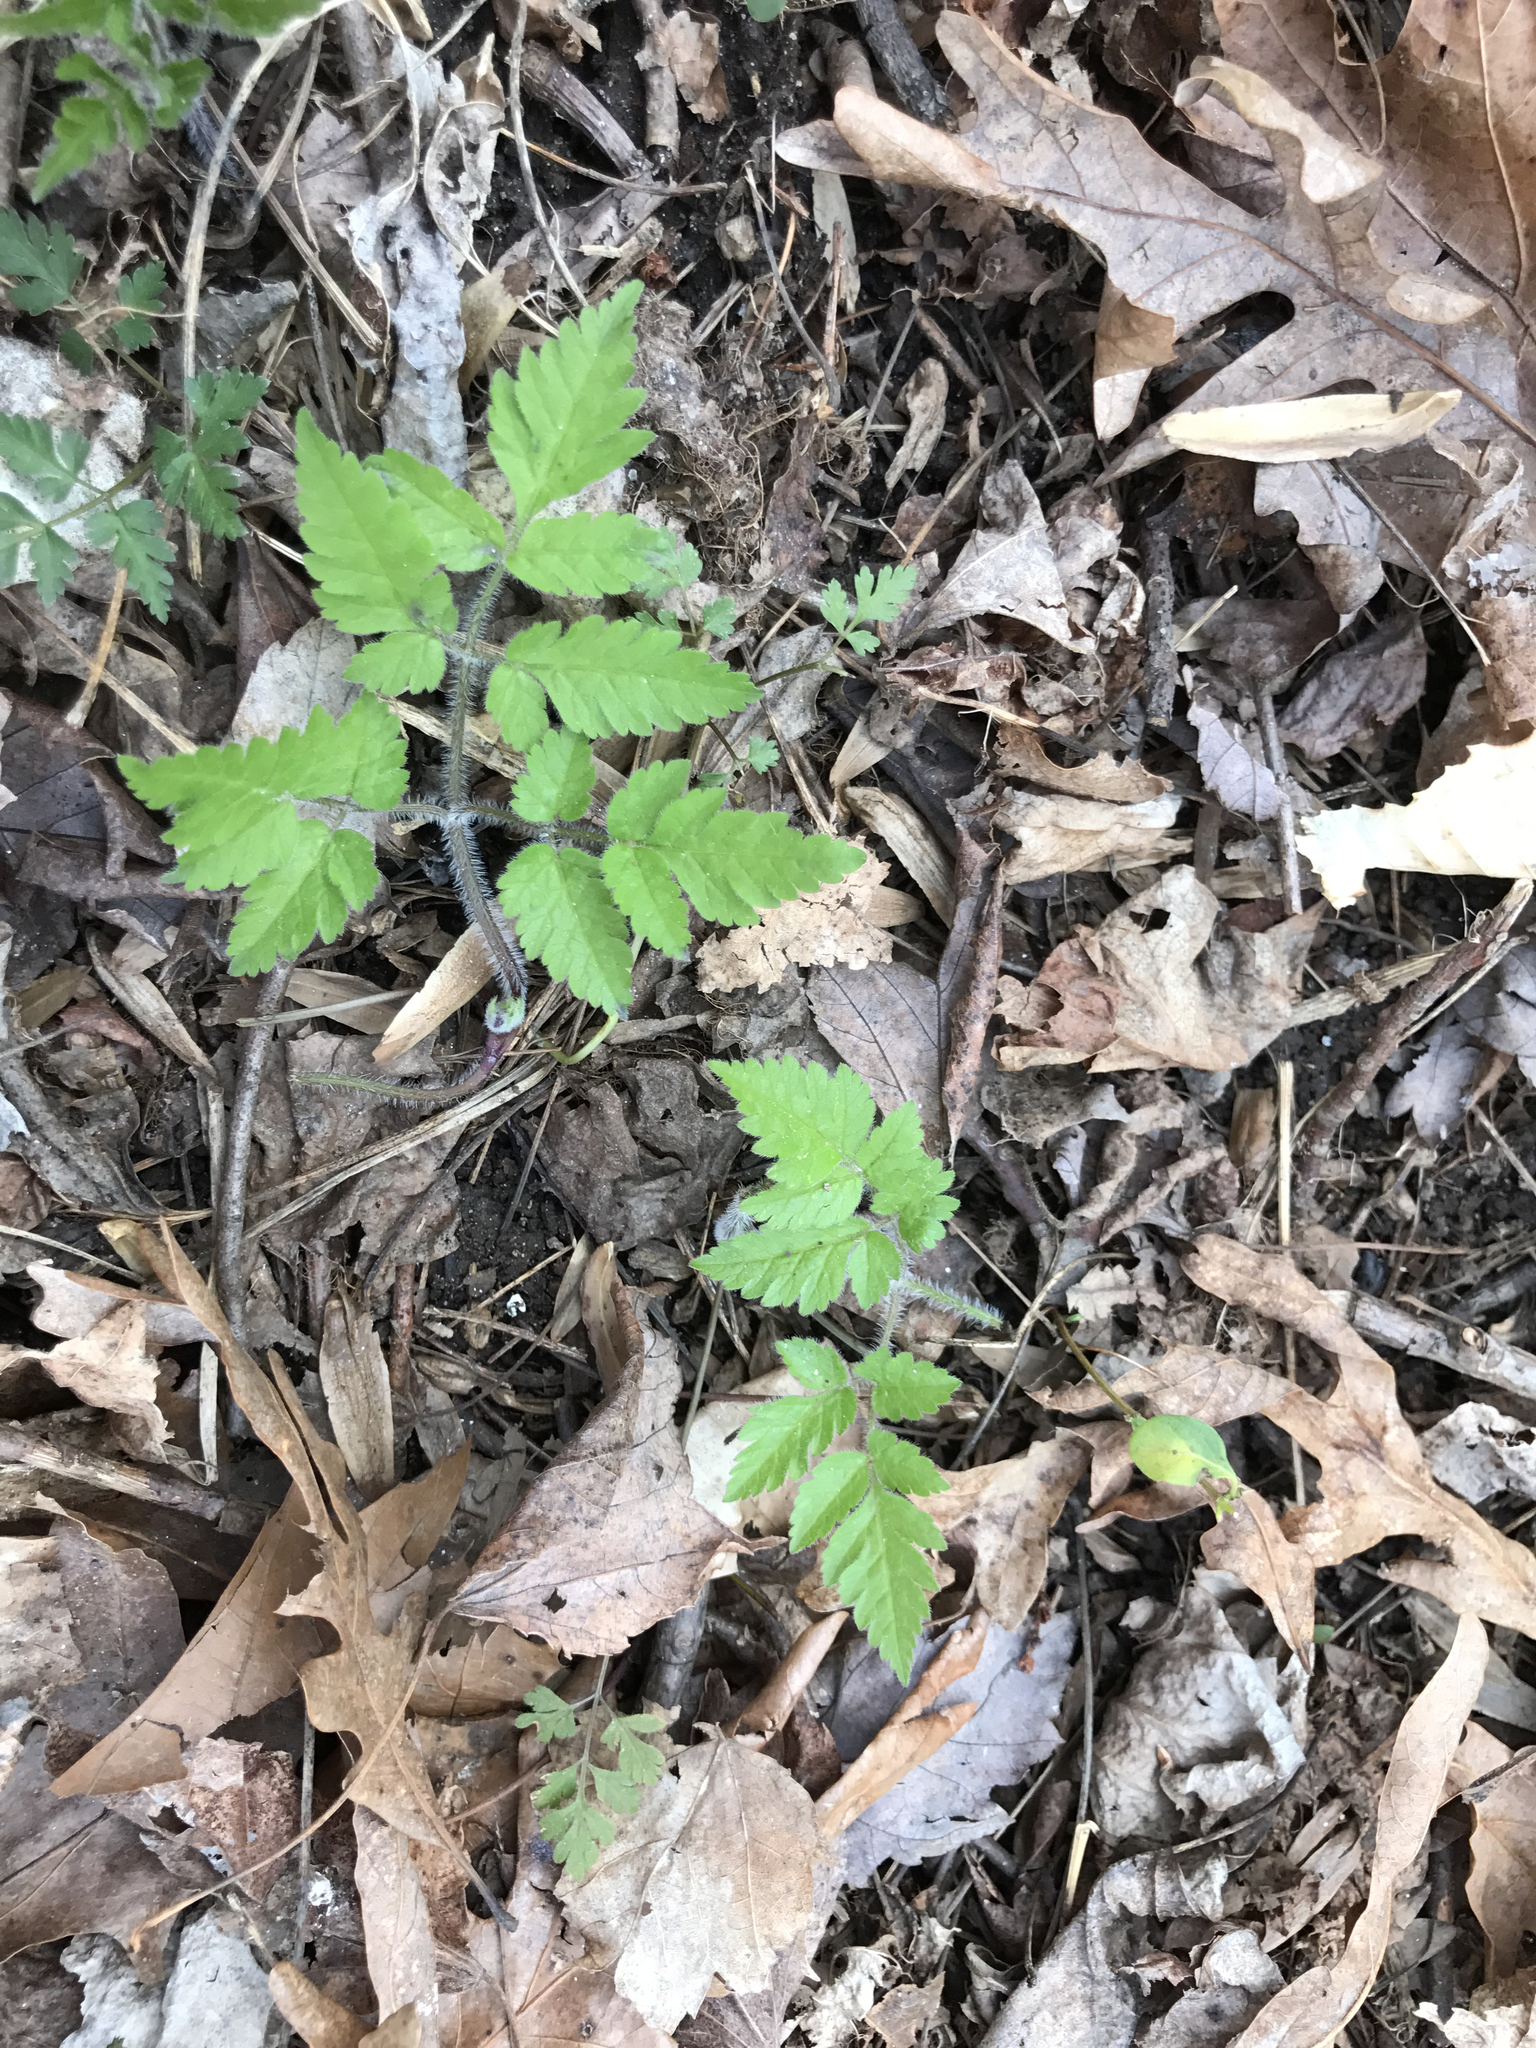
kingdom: Plantae
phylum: Tracheophyta
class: Magnoliopsida
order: Apiales
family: Apiaceae
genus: Osmorhiza
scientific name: Osmorhiza claytonii
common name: Hairy sweet cicely
